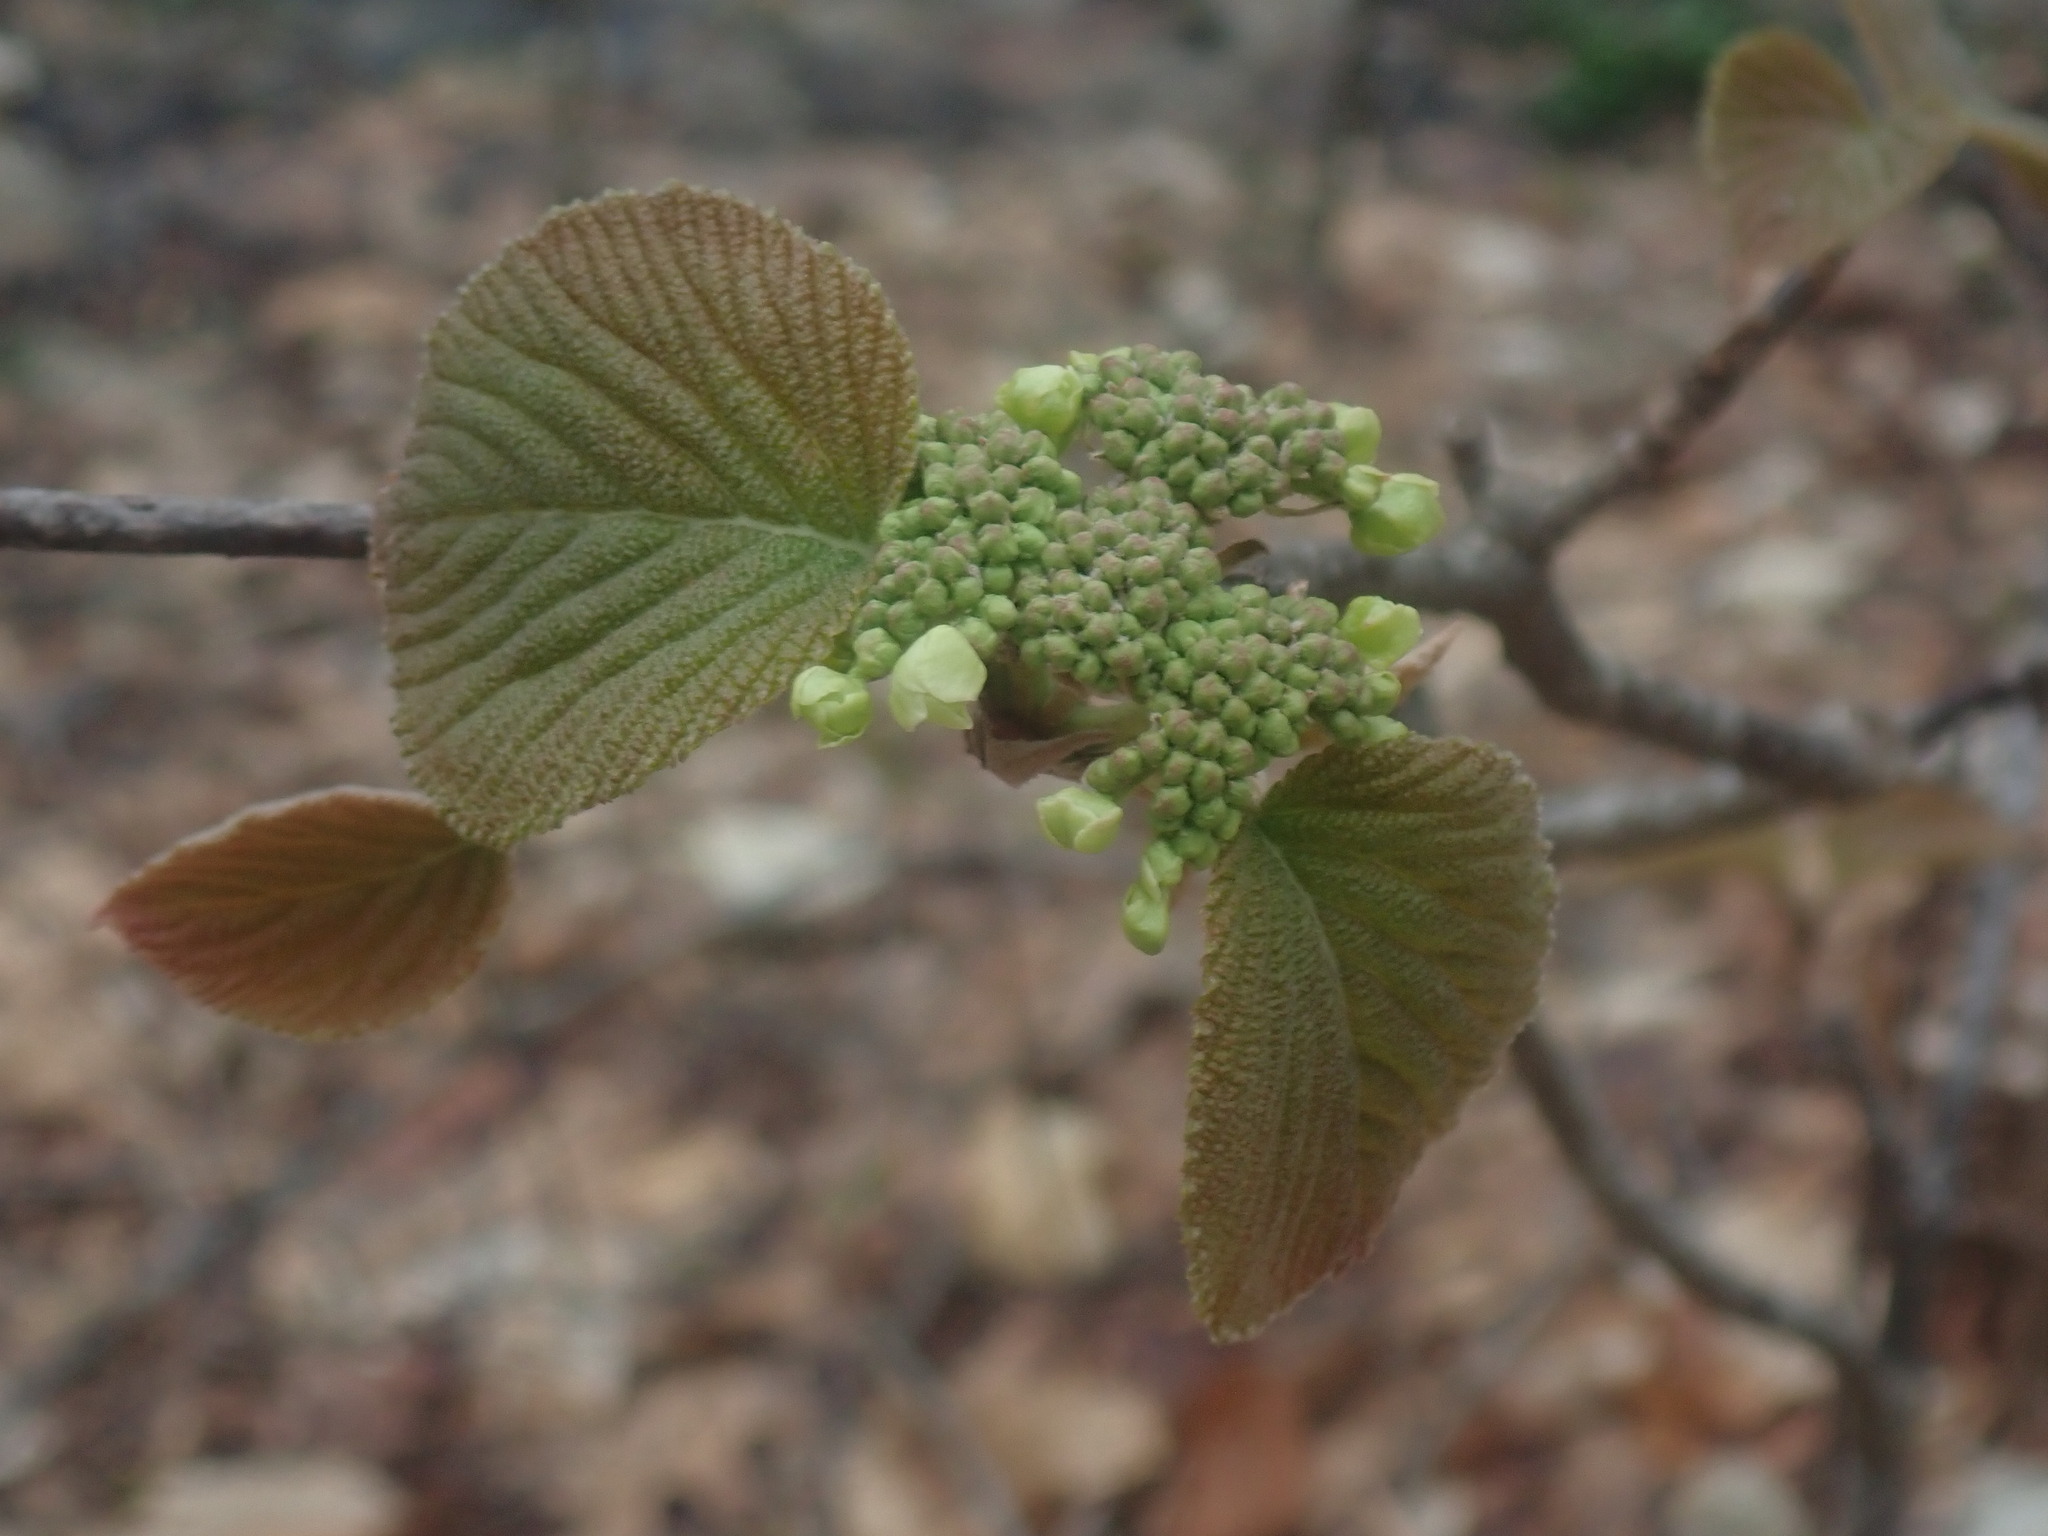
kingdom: Plantae
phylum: Tracheophyta
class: Magnoliopsida
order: Dipsacales
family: Viburnaceae
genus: Viburnum
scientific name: Viburnum lantanoides
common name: Hobblebush
